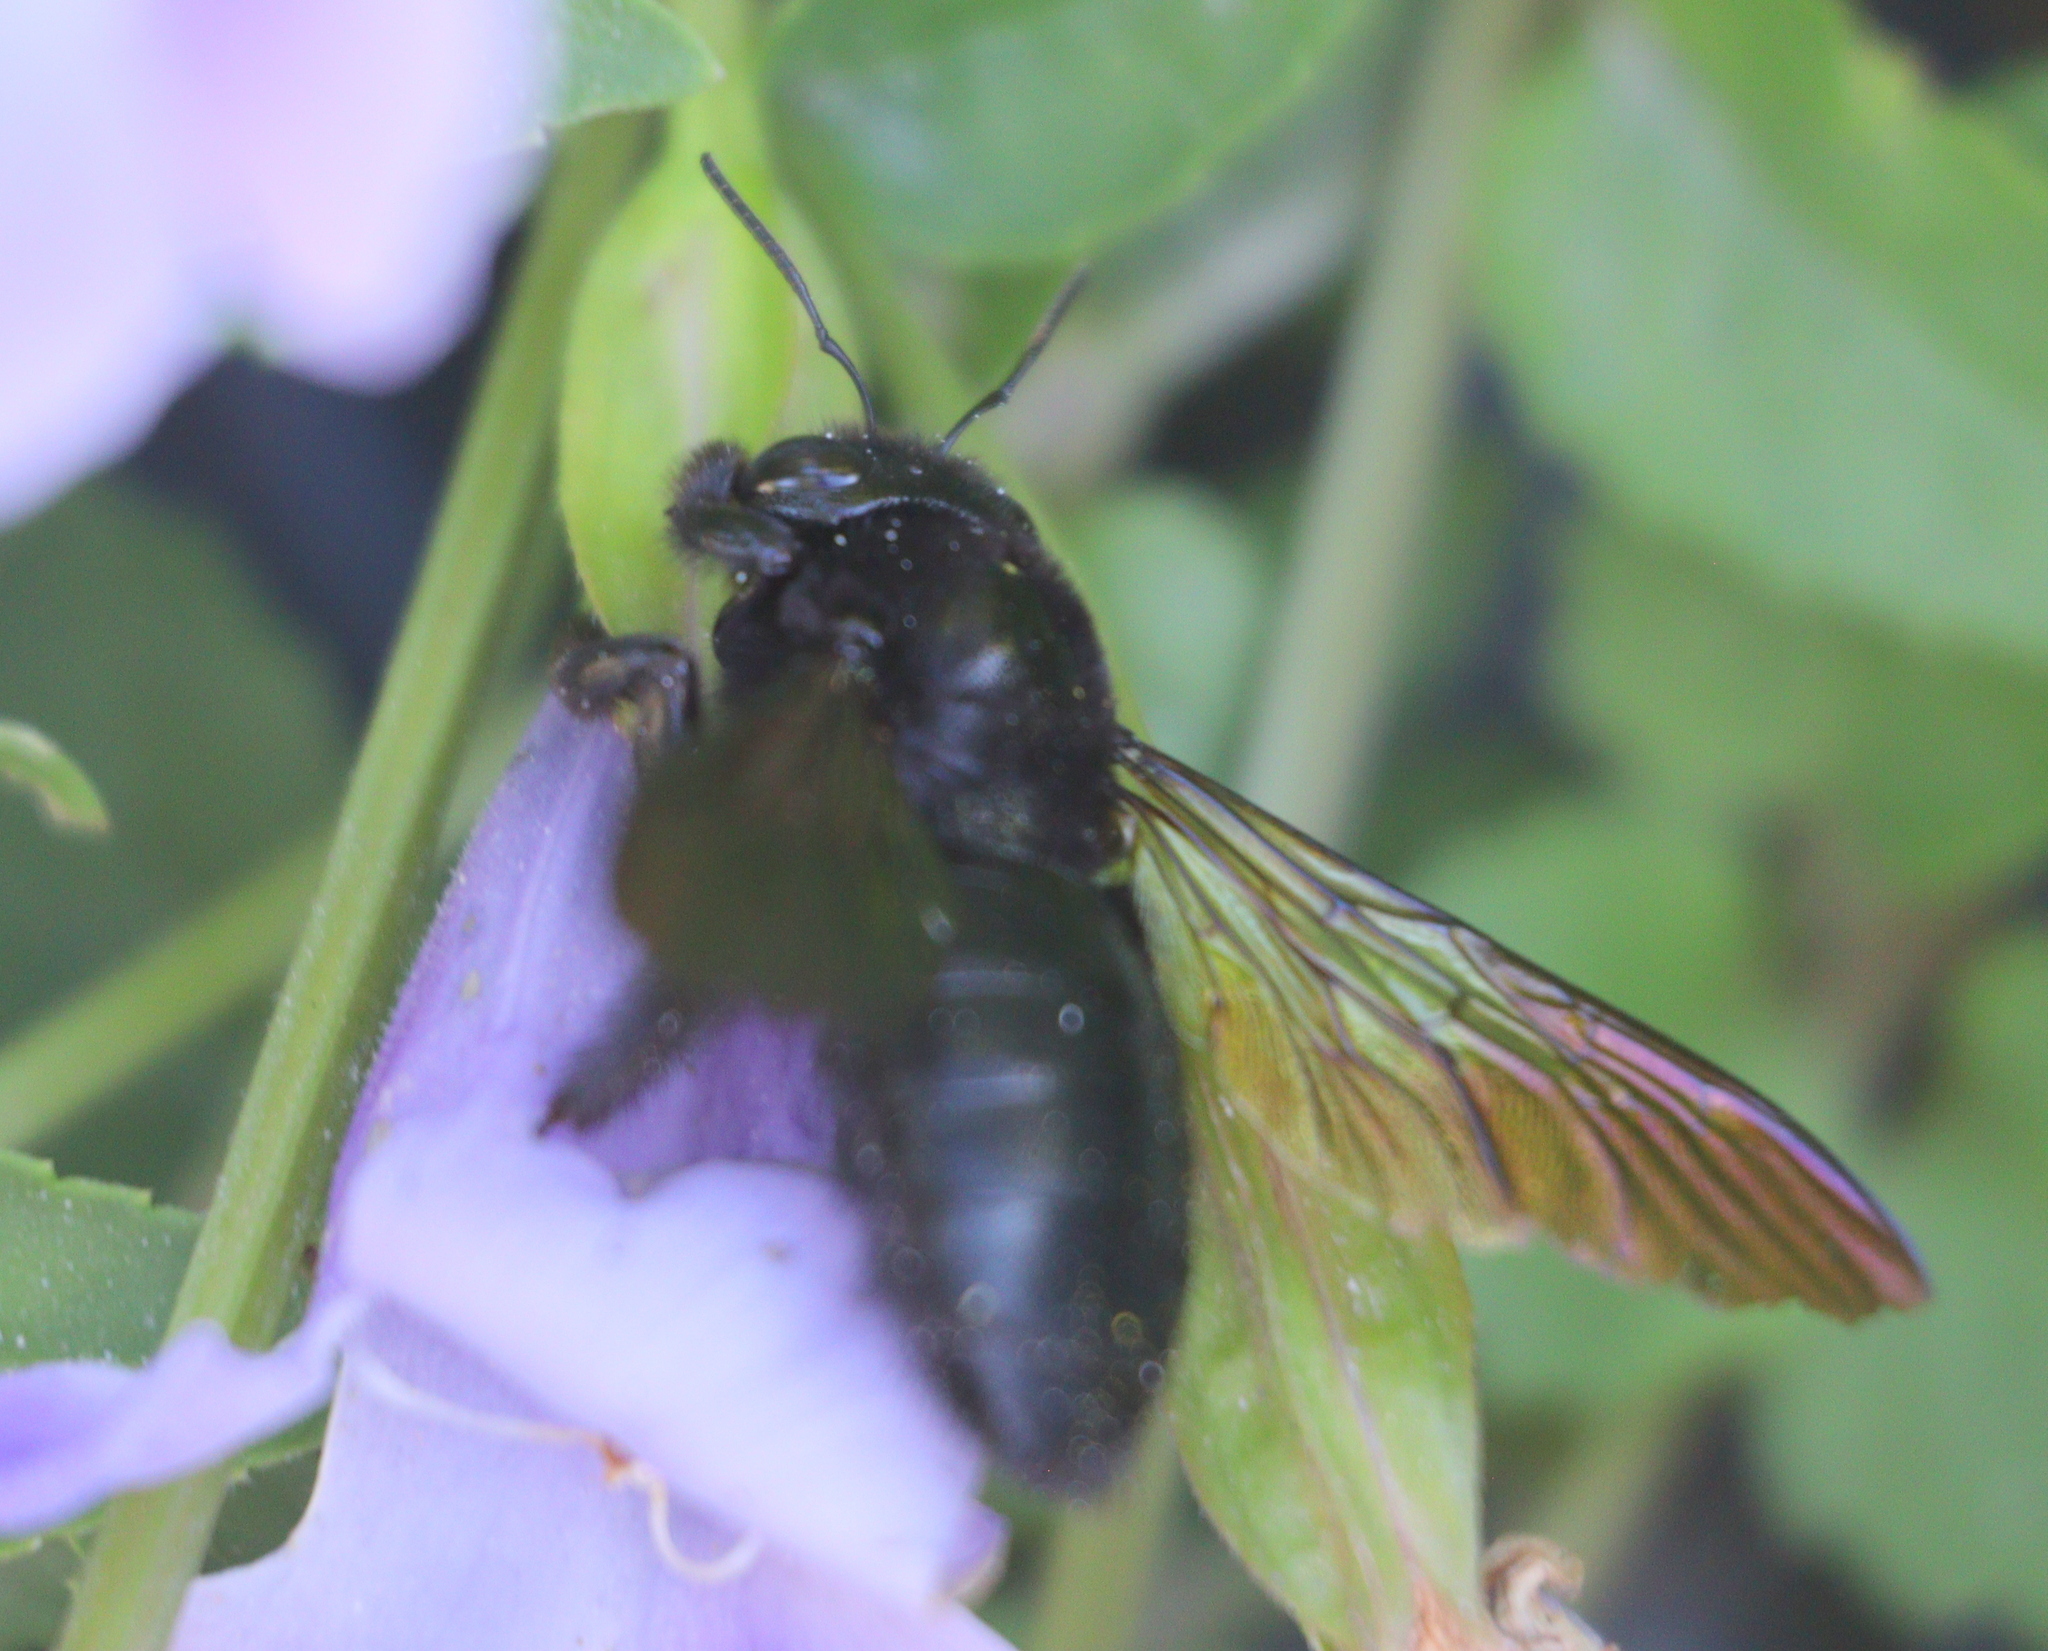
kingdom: Animalia
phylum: Arthropoda
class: Insecta
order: Hymenoptera
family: Apidae
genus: Xylocopa
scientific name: Xylocopa tranquebarorum
